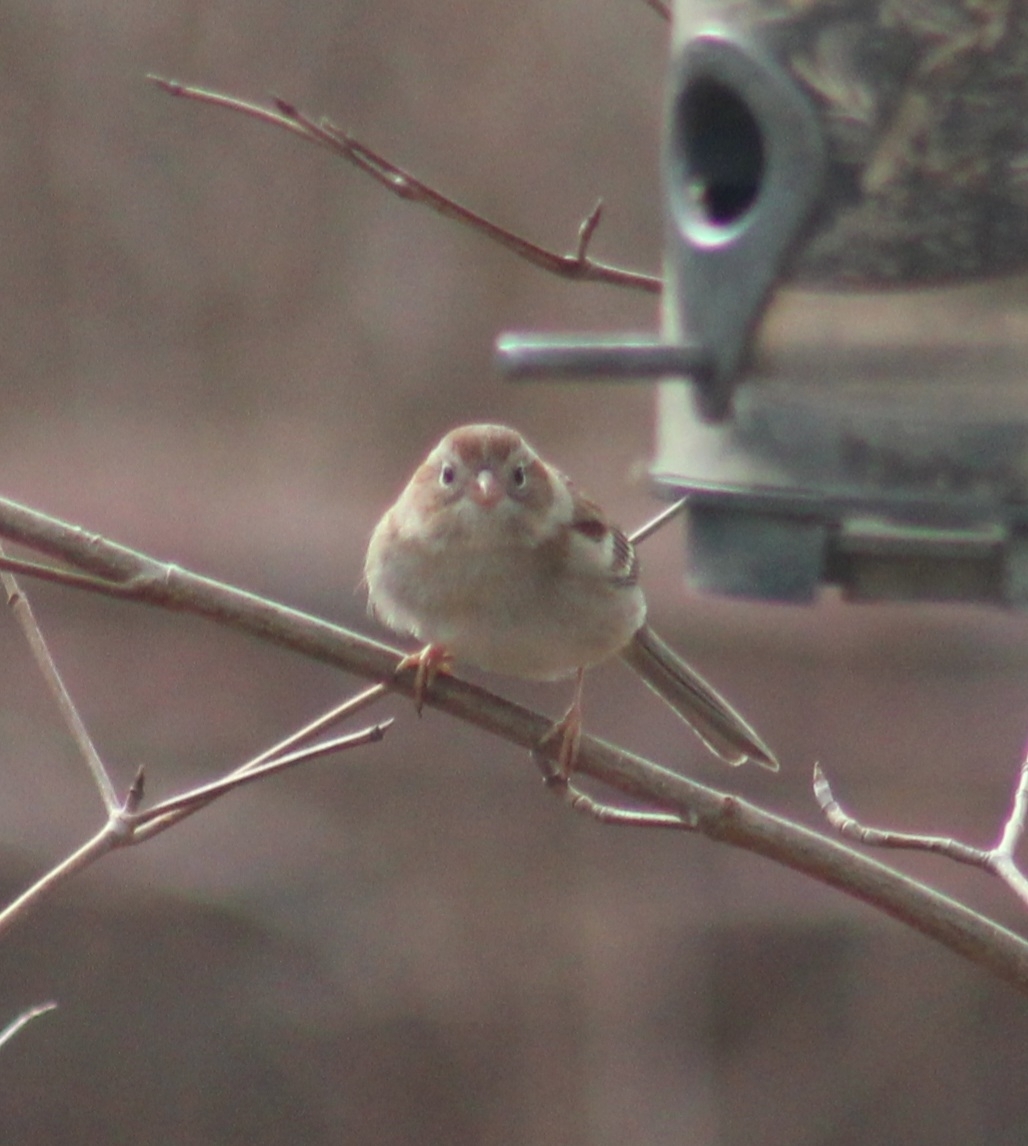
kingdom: Animalia
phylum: Chordata
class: Aves
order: Passeriformes
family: Passerellidae
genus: Spizella
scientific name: Spizella pusilla
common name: Field sparrow
